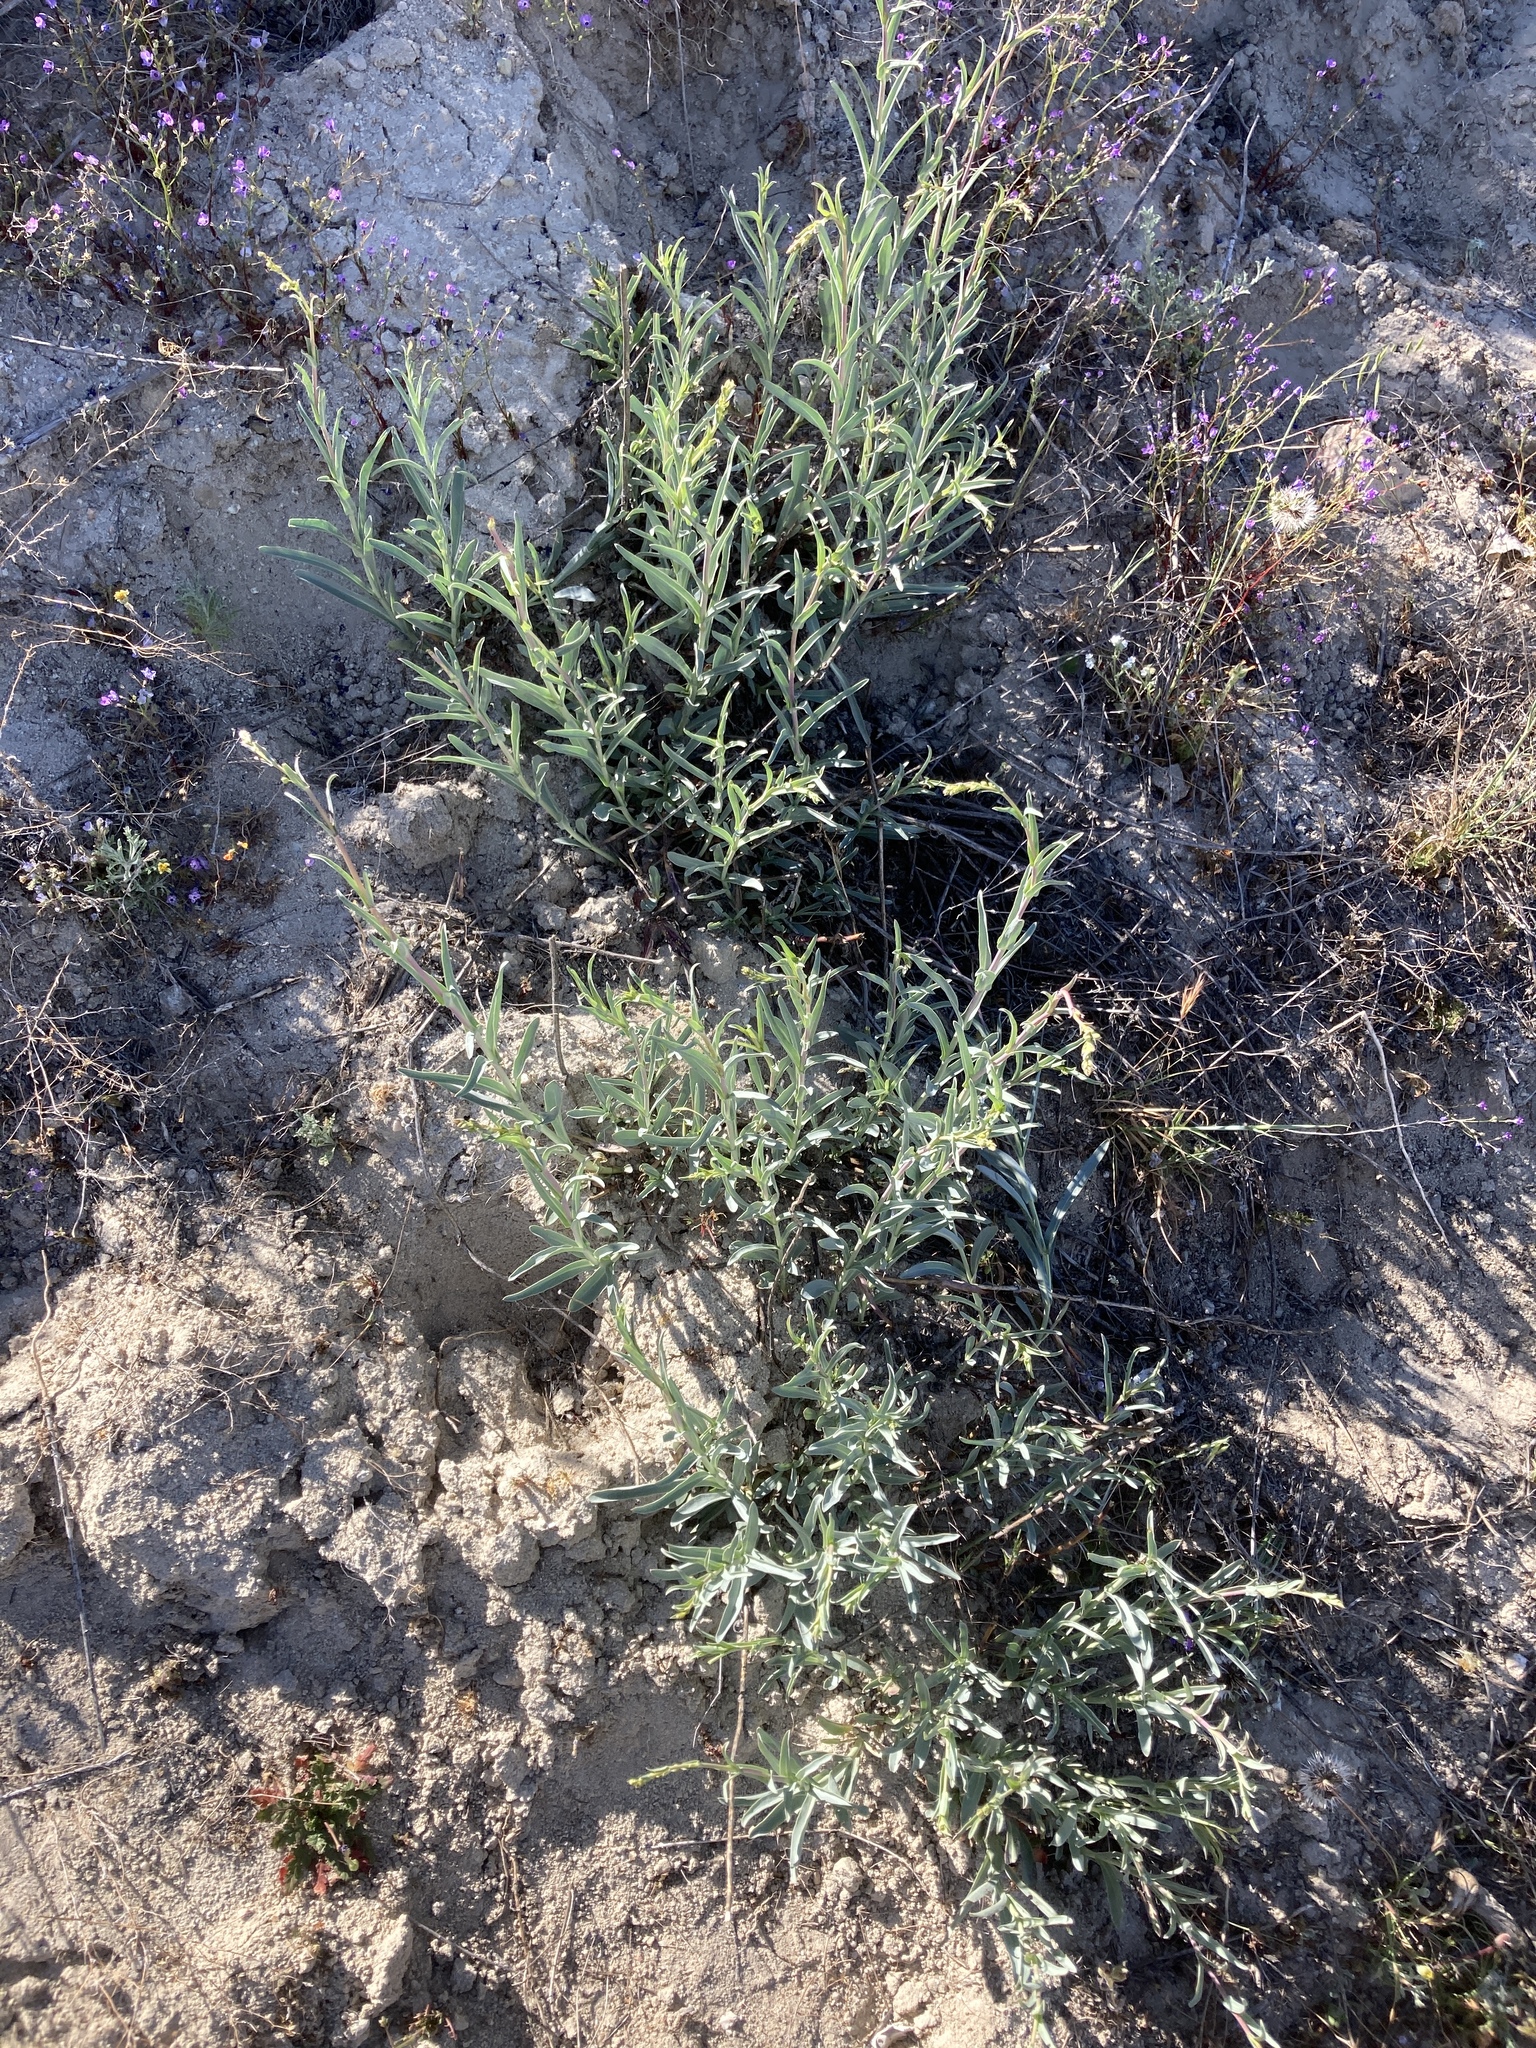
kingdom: Plantae
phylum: Tracheophyta
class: Magnoliopsida
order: Lamiales
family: Plantaginaceae
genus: Penstemon
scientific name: Penstemon centranthifolius
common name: Scarlet bugler
